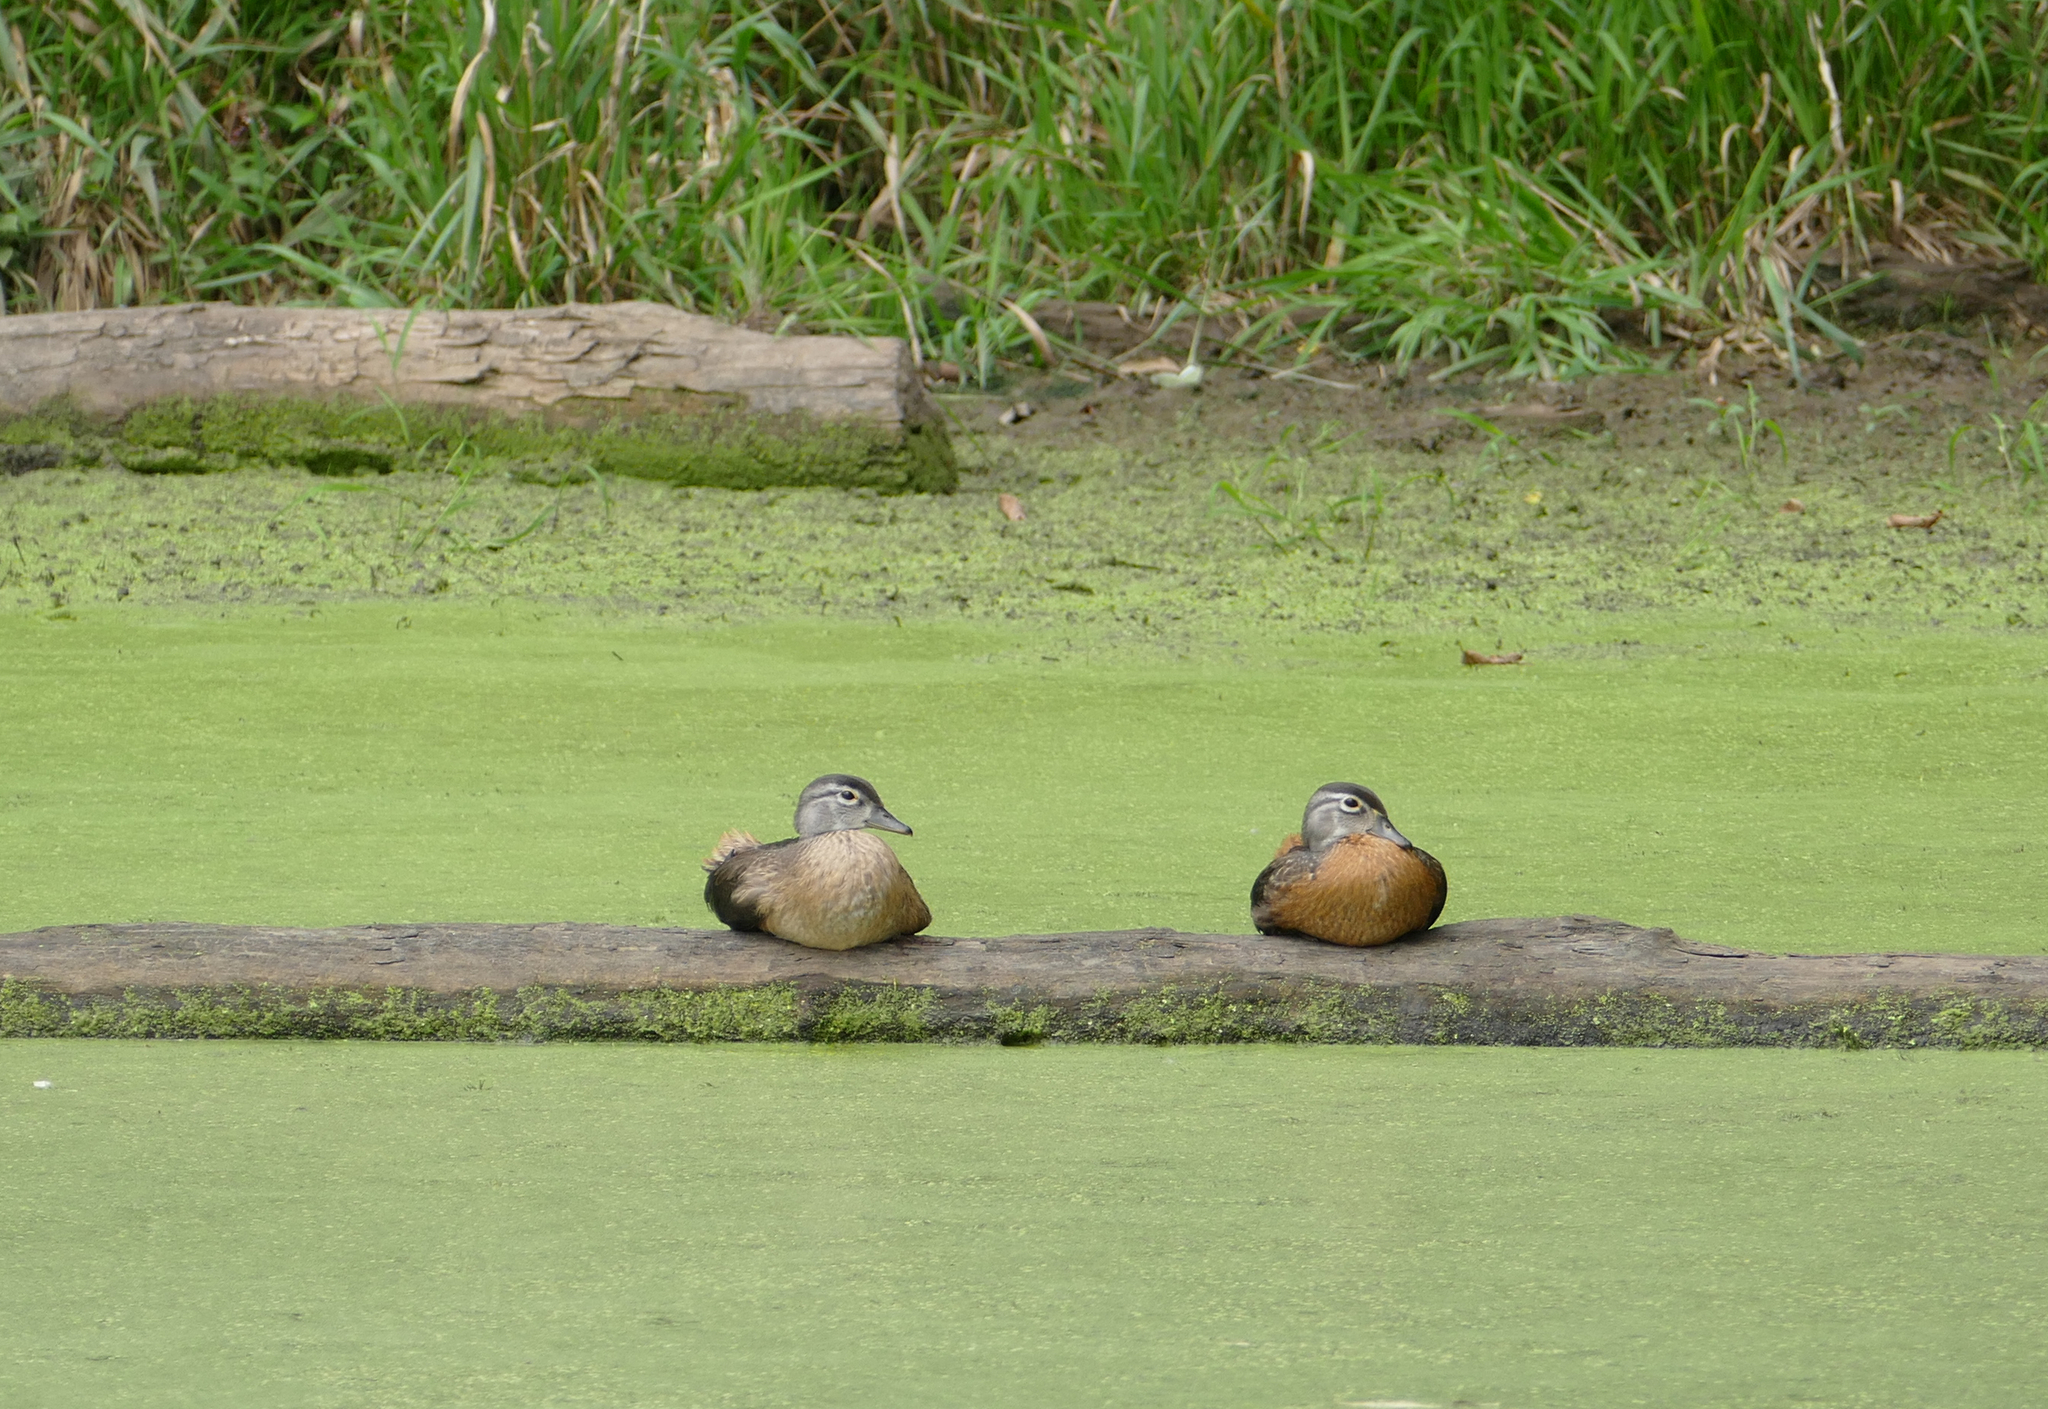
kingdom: Animalia
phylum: Chordata
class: Aves
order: Anseriformes
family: Anatidae
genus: Aix
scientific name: Aix sponsa
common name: Wood duck
